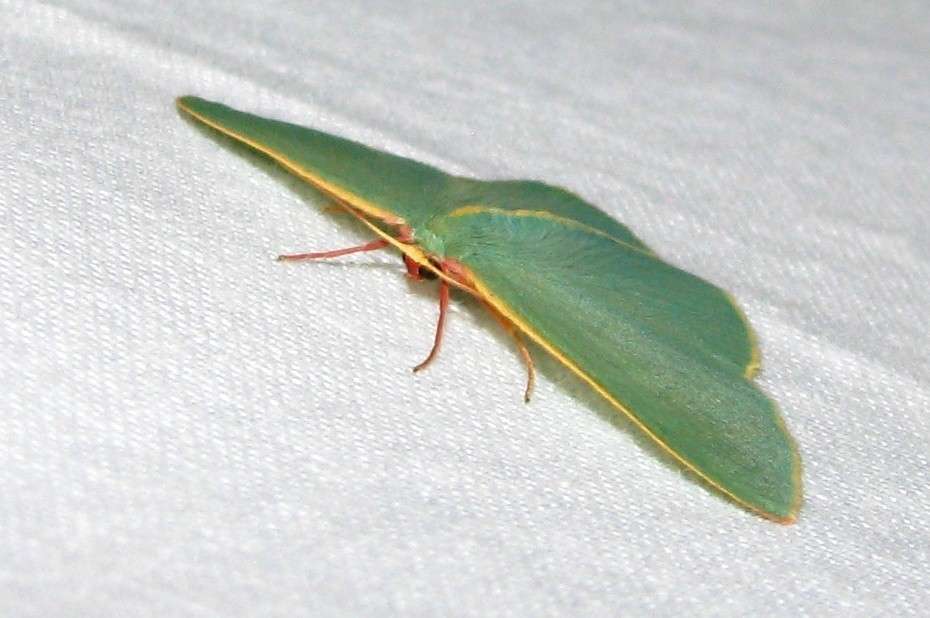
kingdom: Animalia
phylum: Arthropoda
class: Insecta
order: Lepidoptera
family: Geometridae
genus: Chlorocoma
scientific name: Chlorocoma assimilis
